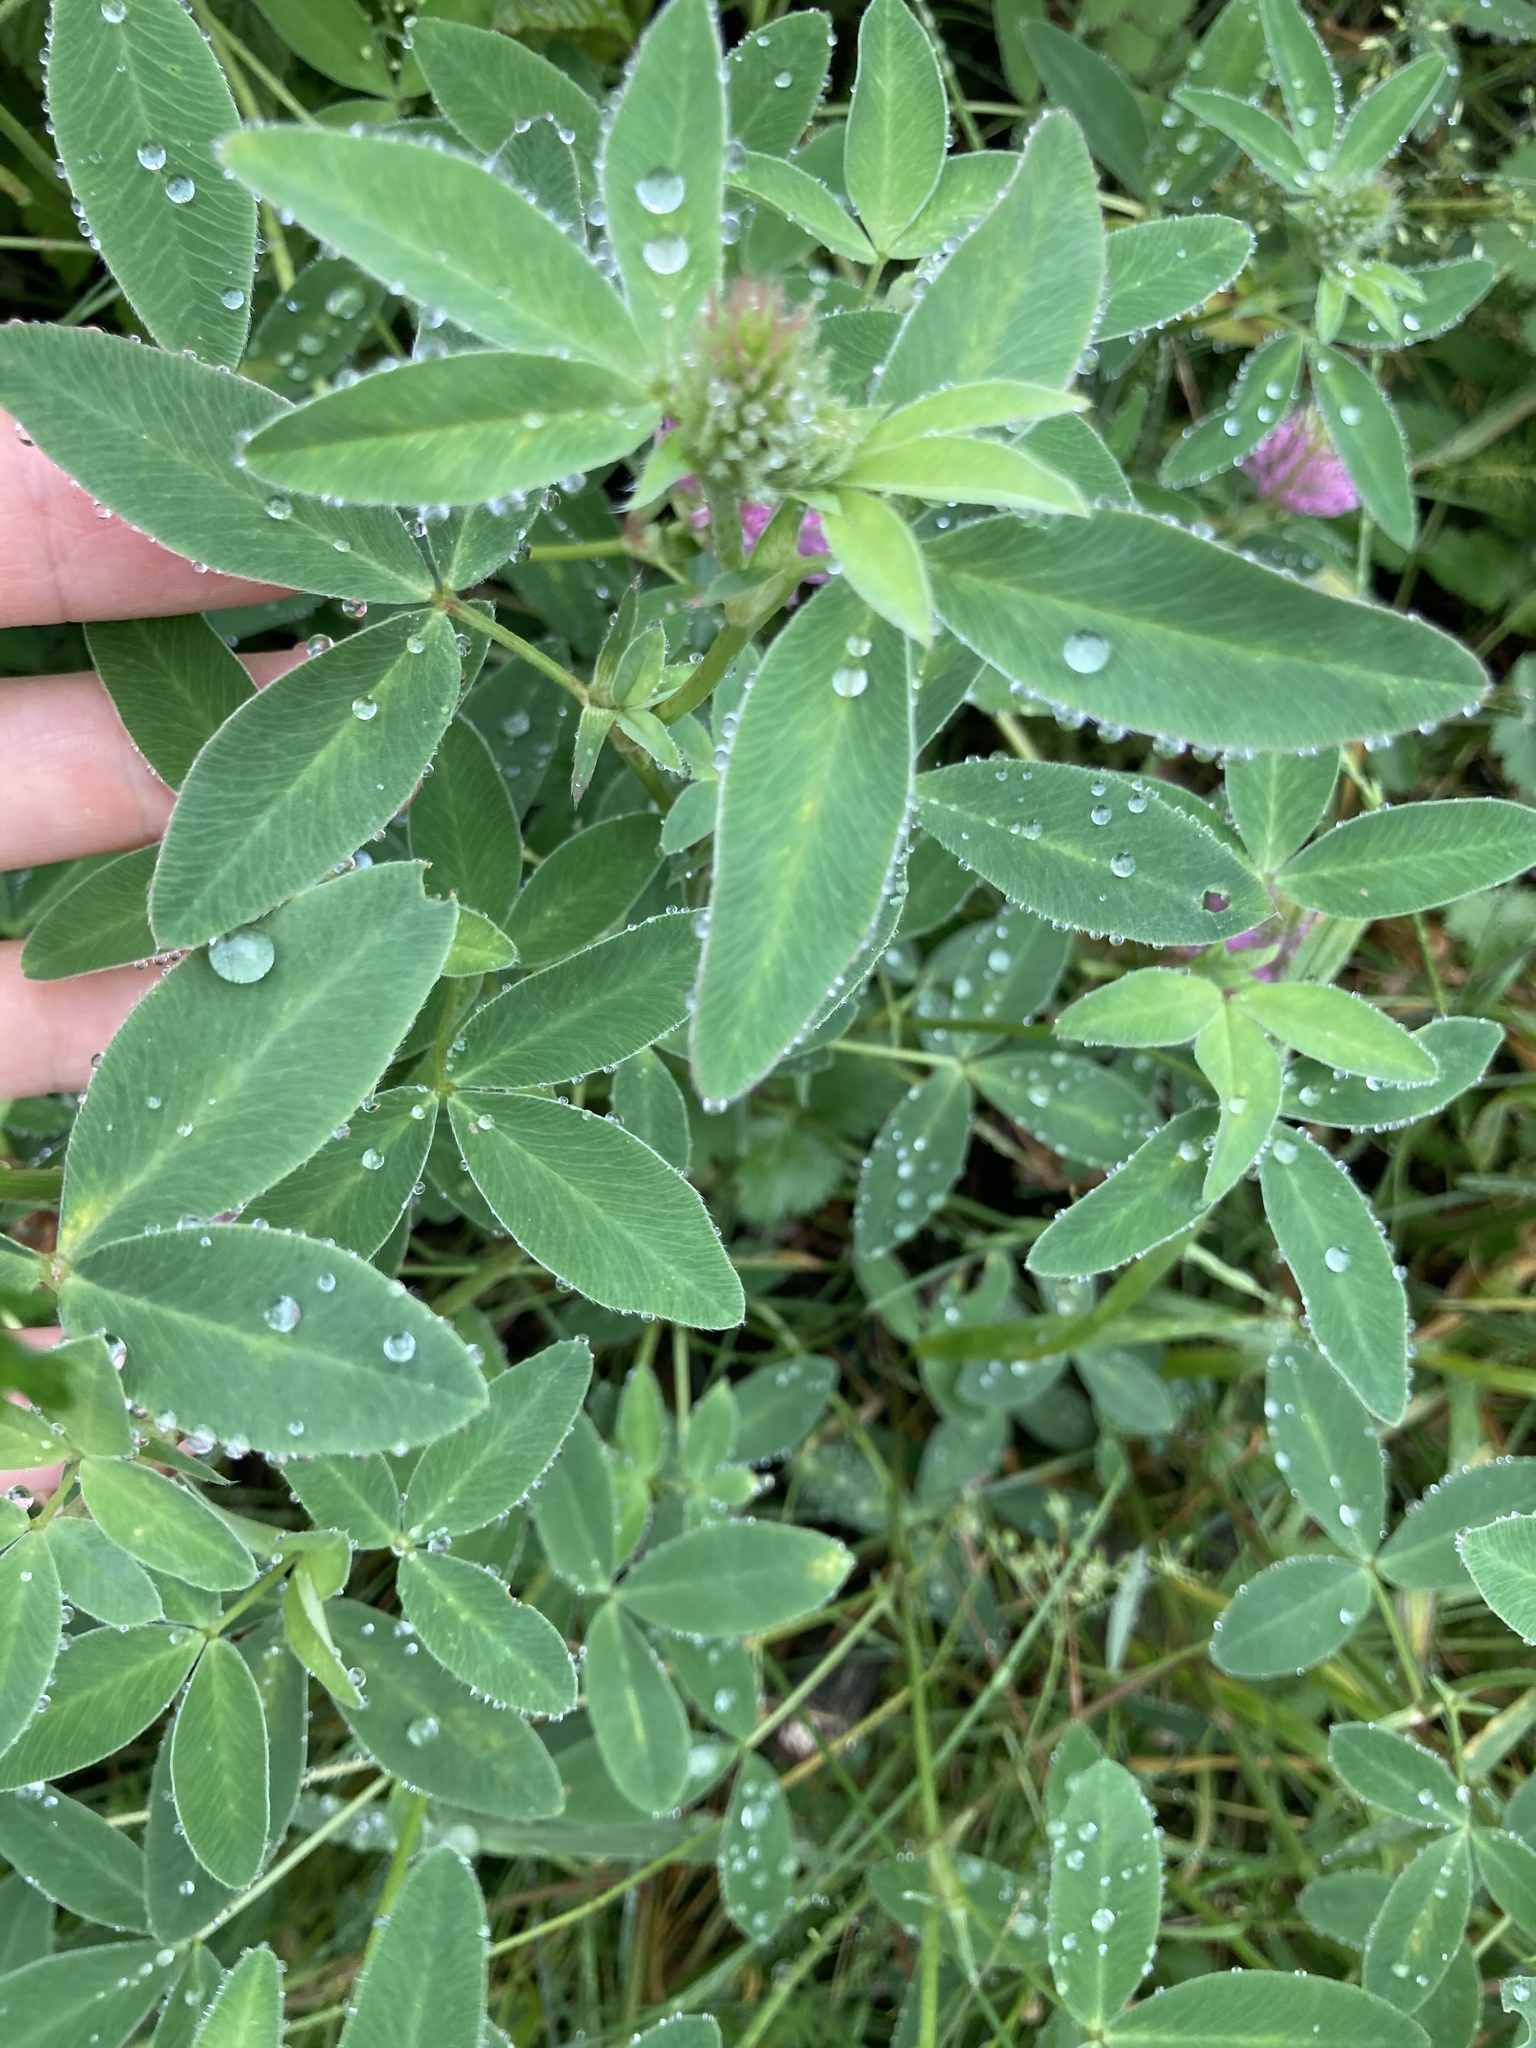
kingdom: Plantae
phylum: Tracheophyta
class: Magnoliopsida
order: Fabales
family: Fabaceae
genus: Trifolium
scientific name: Trifolium medium
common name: Zigzag clover
